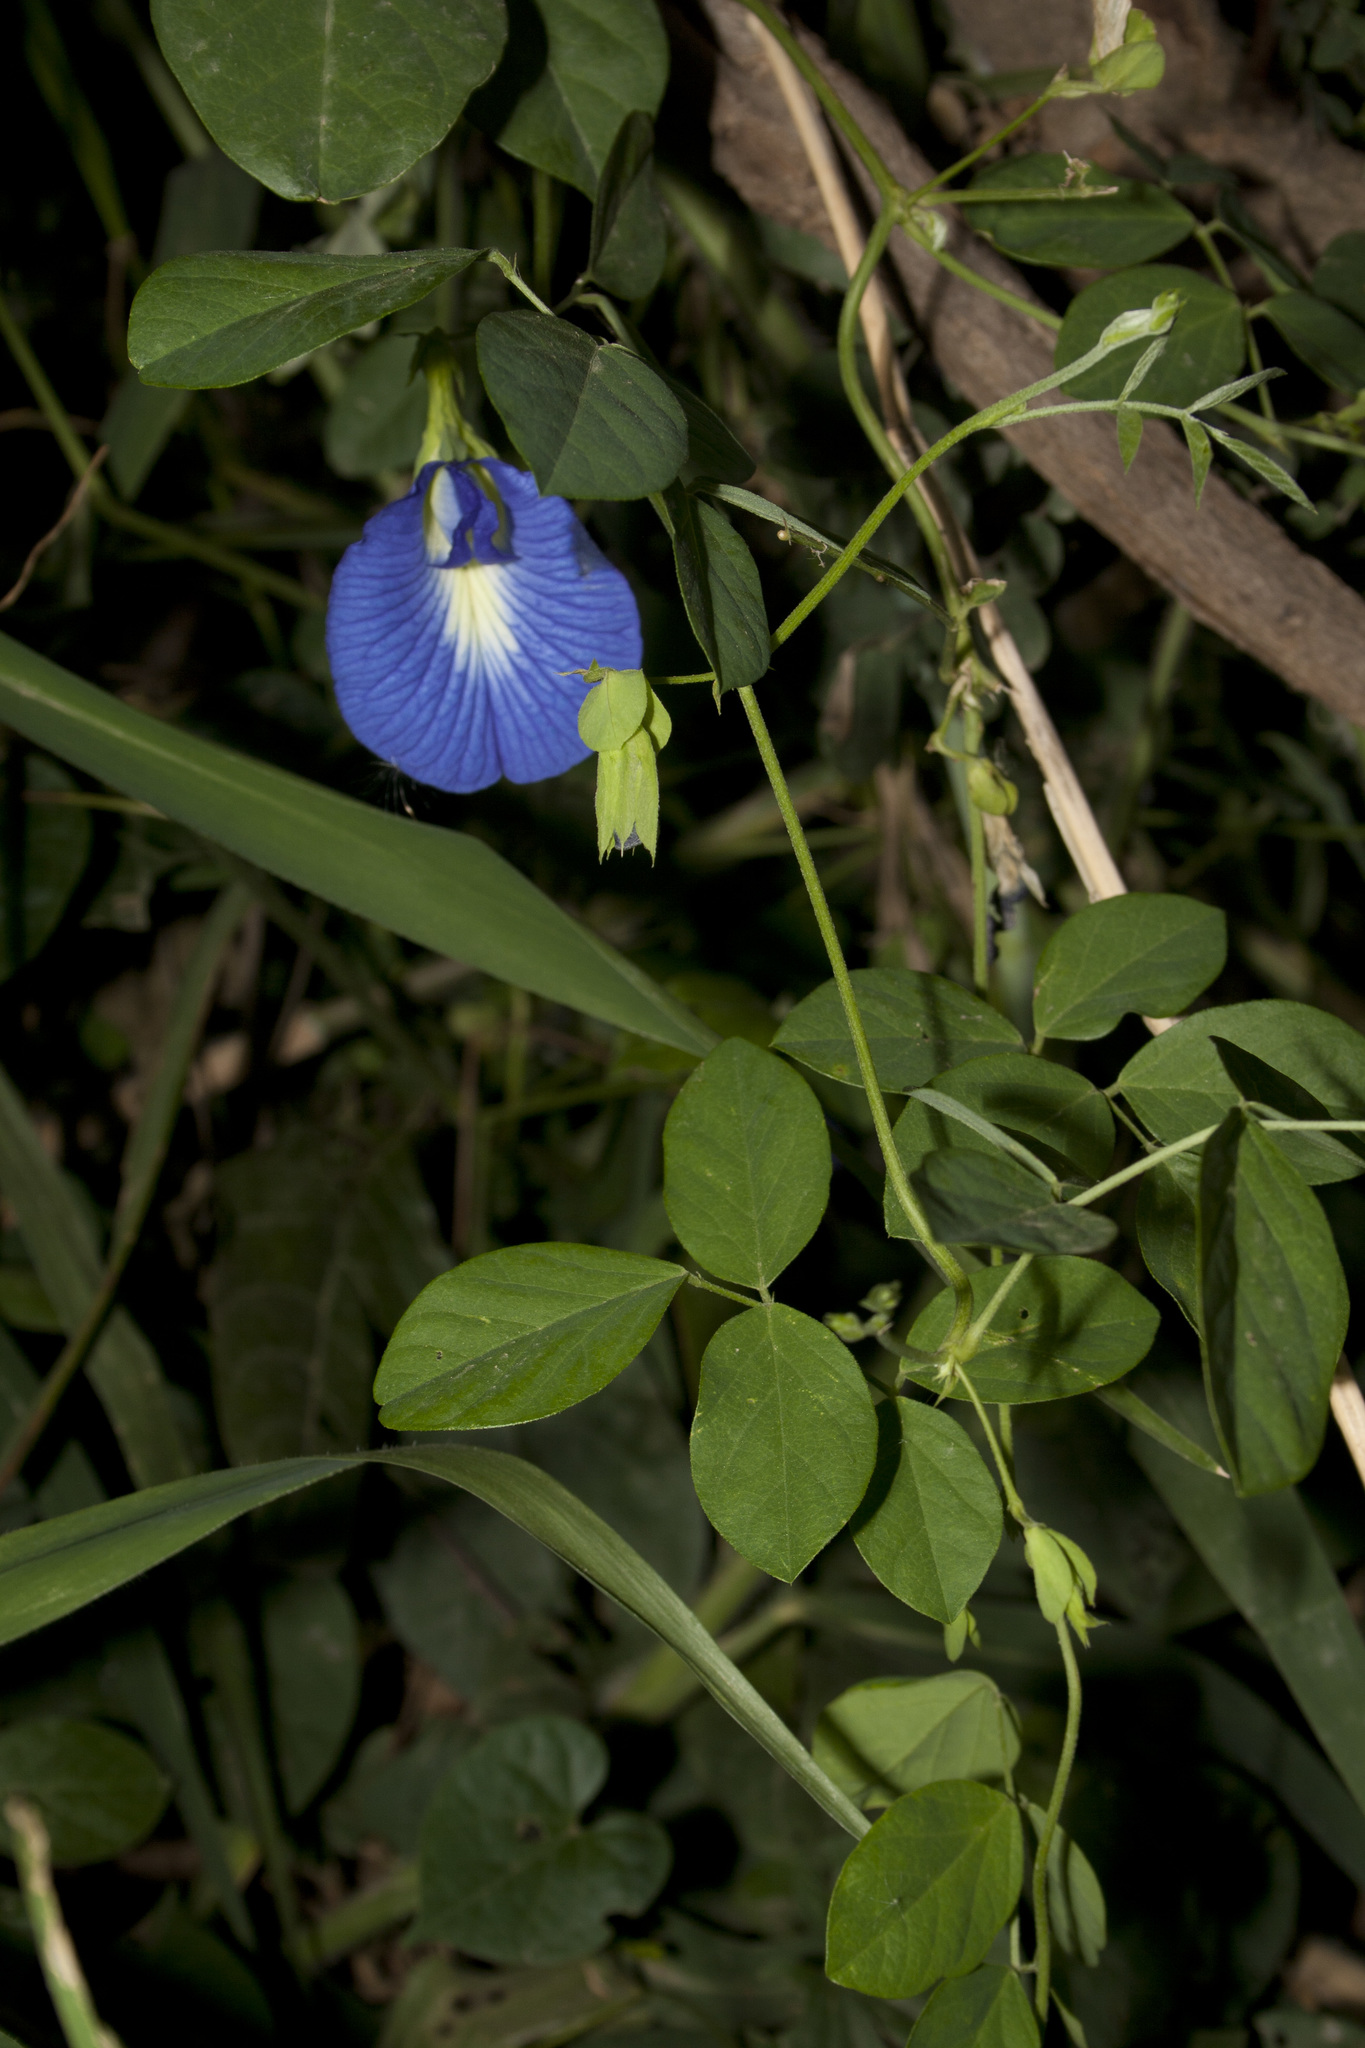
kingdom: Plantae
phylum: Tracheophyta
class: Magnoliopsida
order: Fabales
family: Fabaceae
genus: Clitoria
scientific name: Clitoria ternatea
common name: Asian pigeonwings
